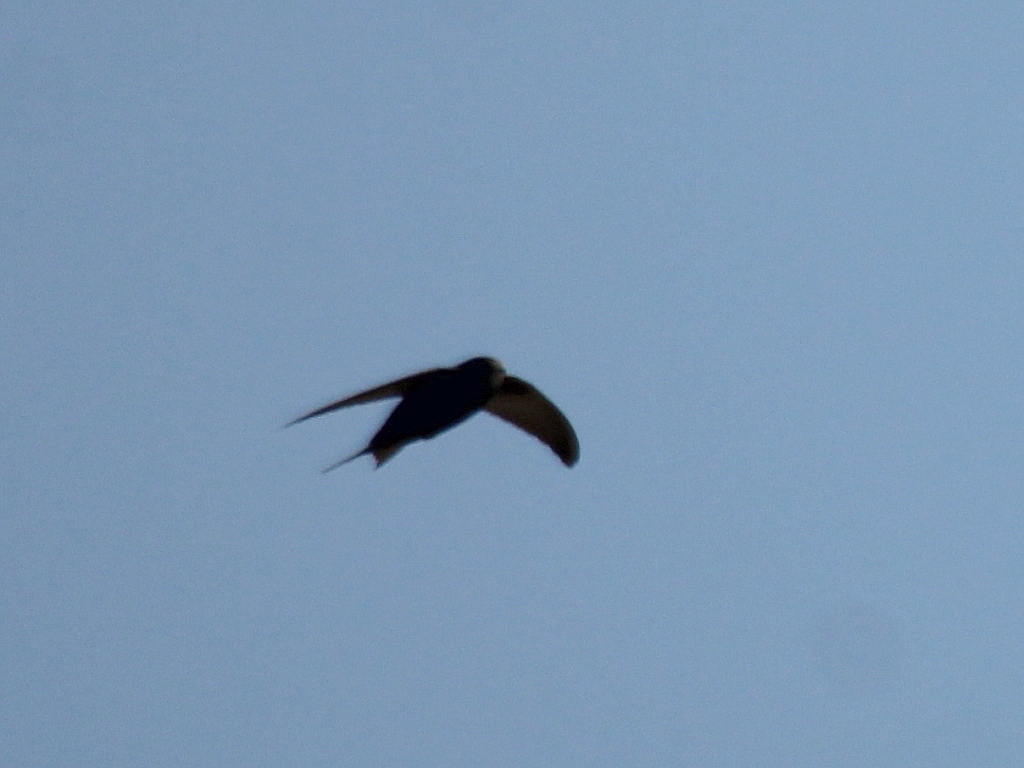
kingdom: Animalia
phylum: Chordata
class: Aves
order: Apodiformes
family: Apodidae
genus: Apus
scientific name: Apus apus
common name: Common swift
